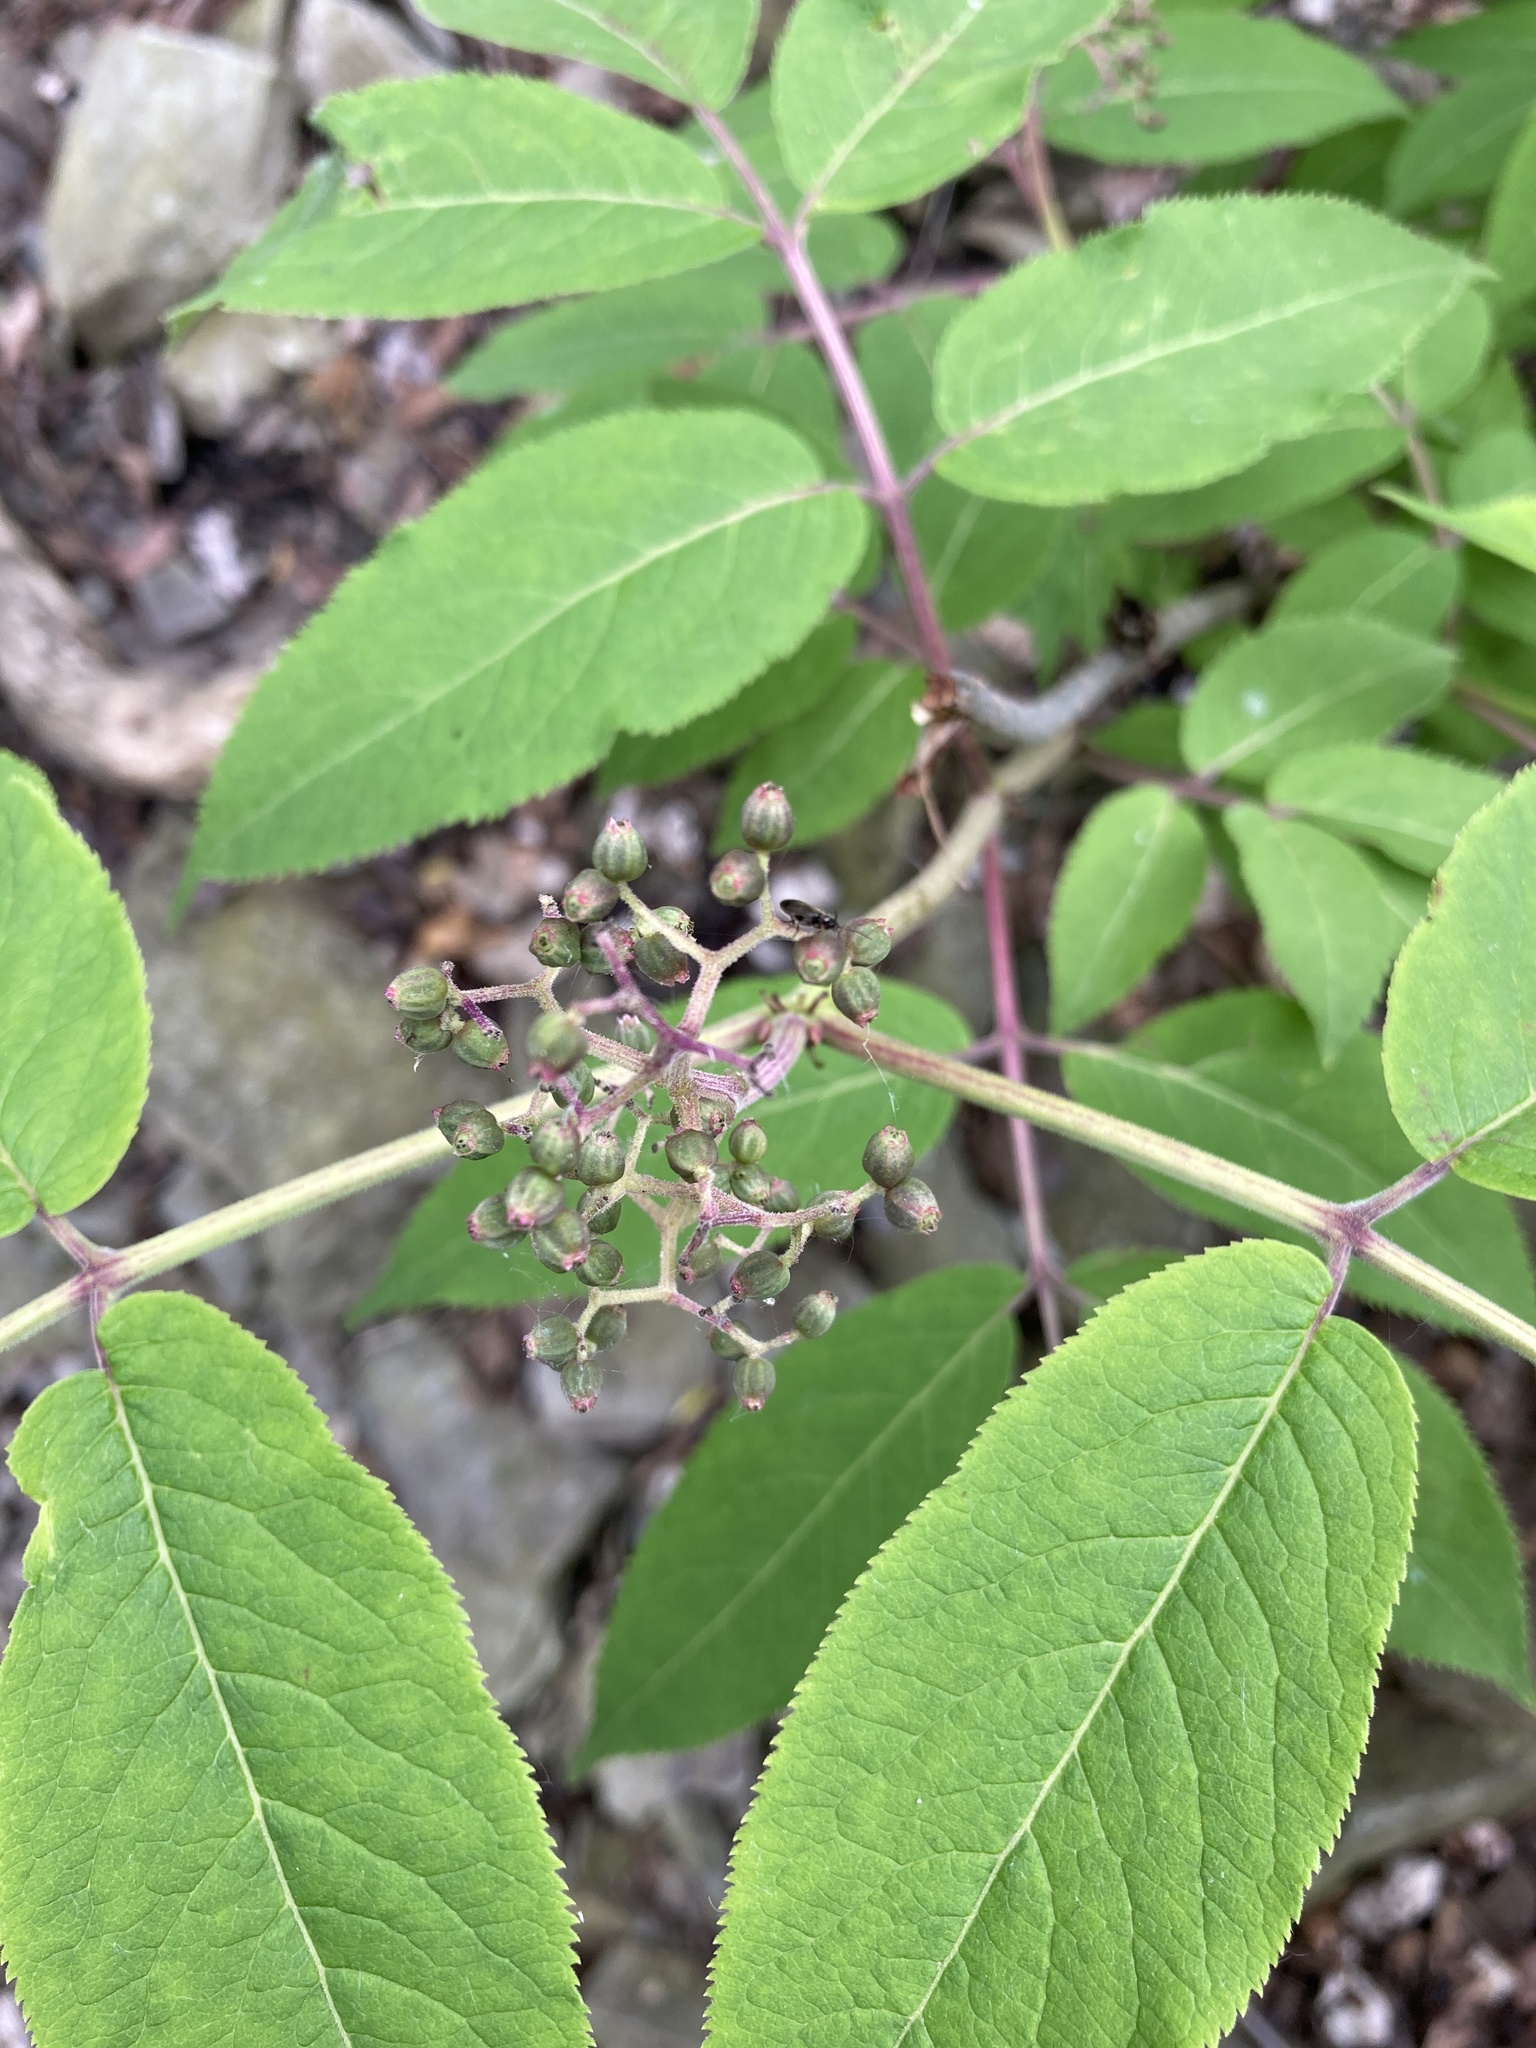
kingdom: Plantae
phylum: Tracheophyta
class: Magnoliopsida
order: Dipsacales
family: Viburnaceae
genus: Sambucus
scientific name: Sambucus racemosa
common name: Red-berried elder
